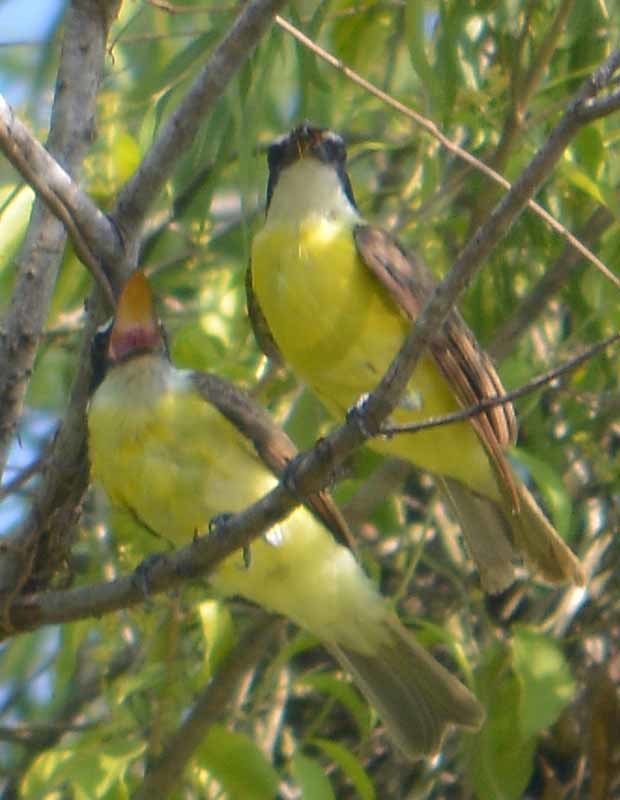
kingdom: Animalia
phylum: Chordata
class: Aves
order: Passeriformes
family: Tyrannidae
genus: Megarynchus
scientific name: Megarynchus pitangua
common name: Boat-billed flycatcher
